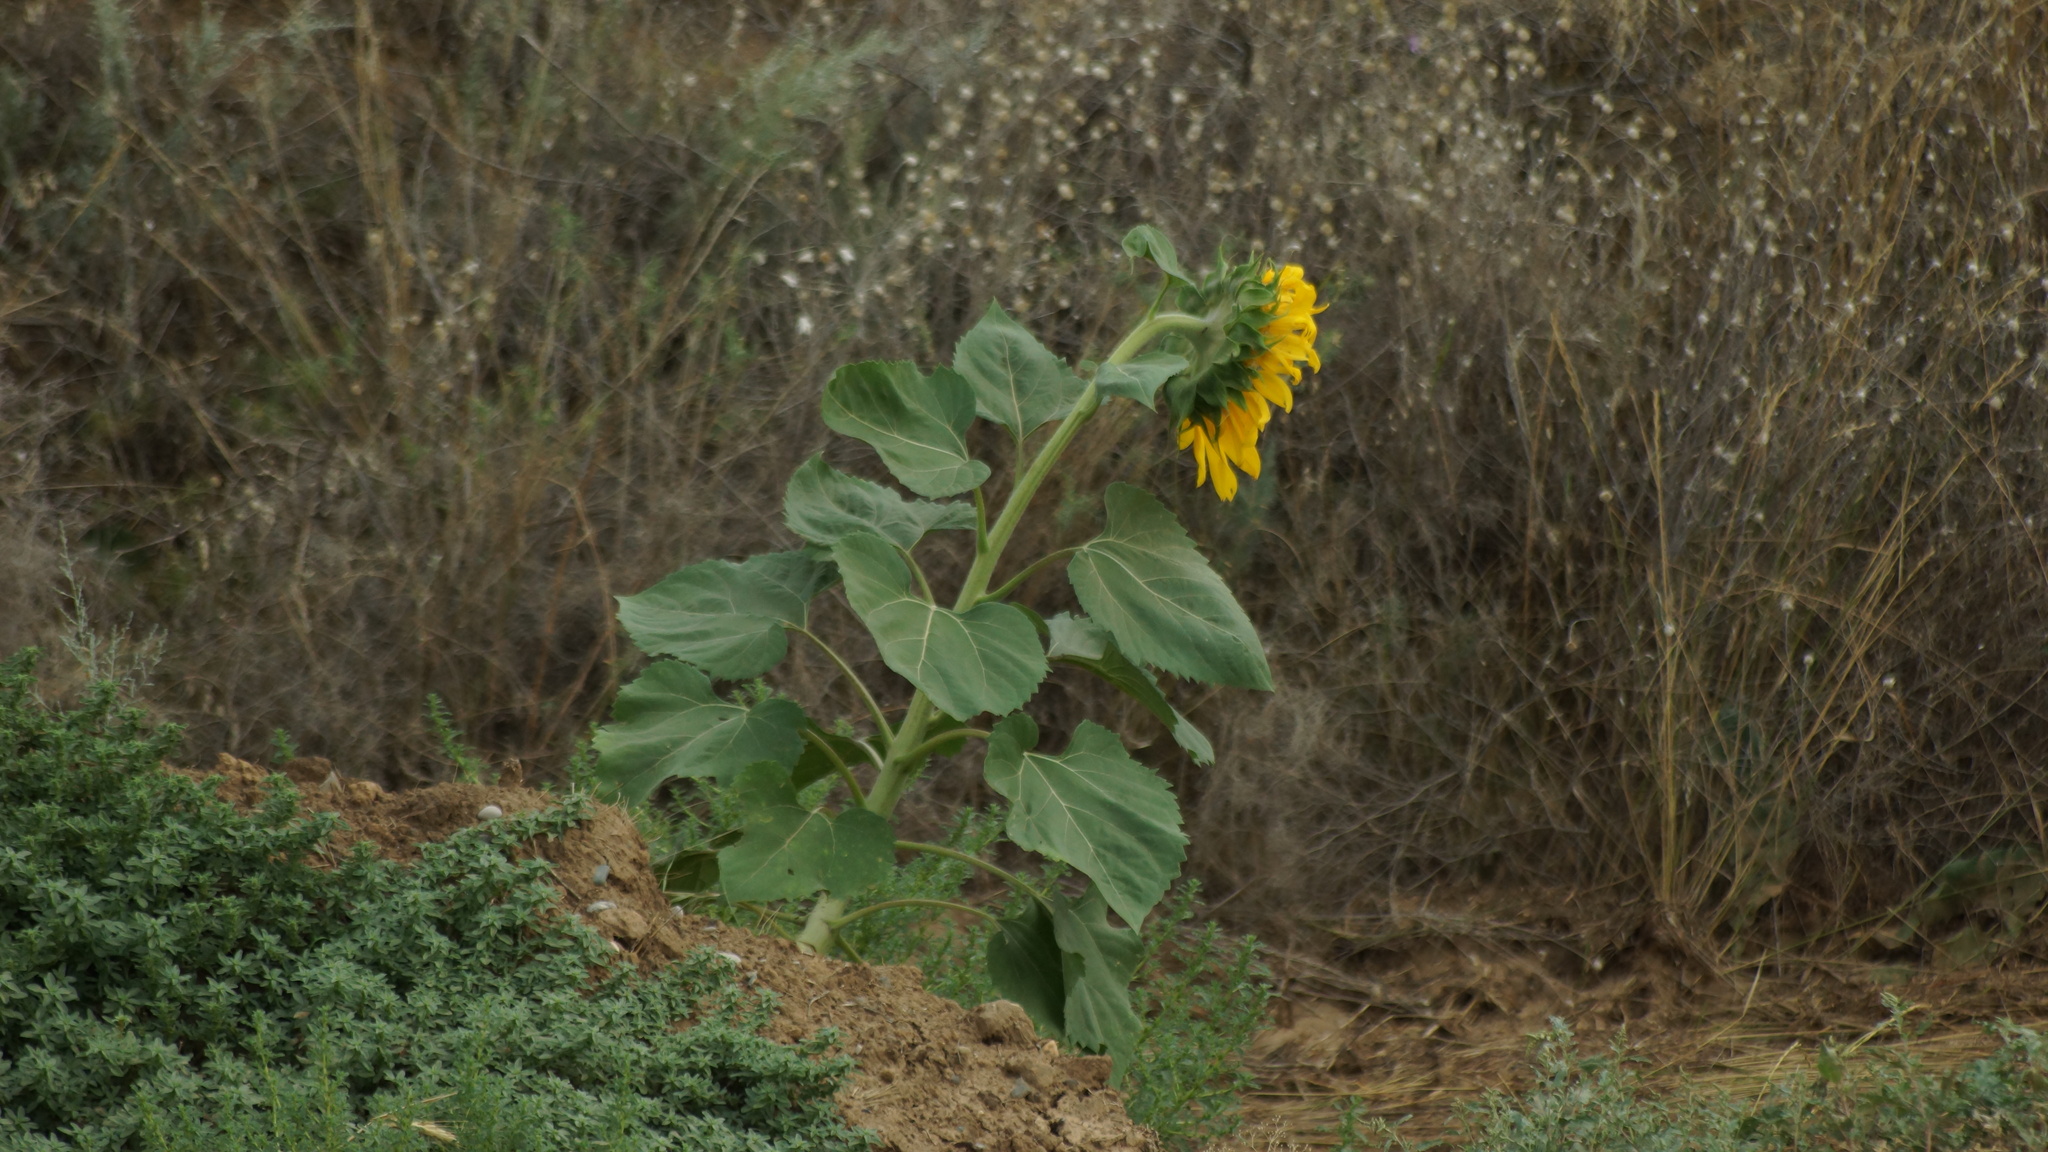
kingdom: Plantae
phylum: Tracheophyta
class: Magnoliopsida
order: Asterales
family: Asteraceae
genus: Helianthus
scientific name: Helianthus annuus
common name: Sunflower
